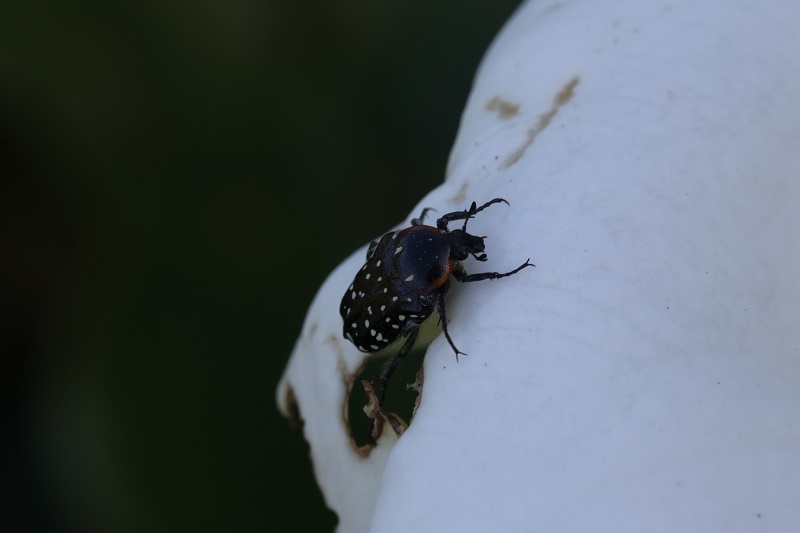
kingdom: Animalia
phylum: Arthropoda
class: Insecta
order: Coleoptera
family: Scarabaeidae
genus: Oxythyrea
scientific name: Oxythyrea
